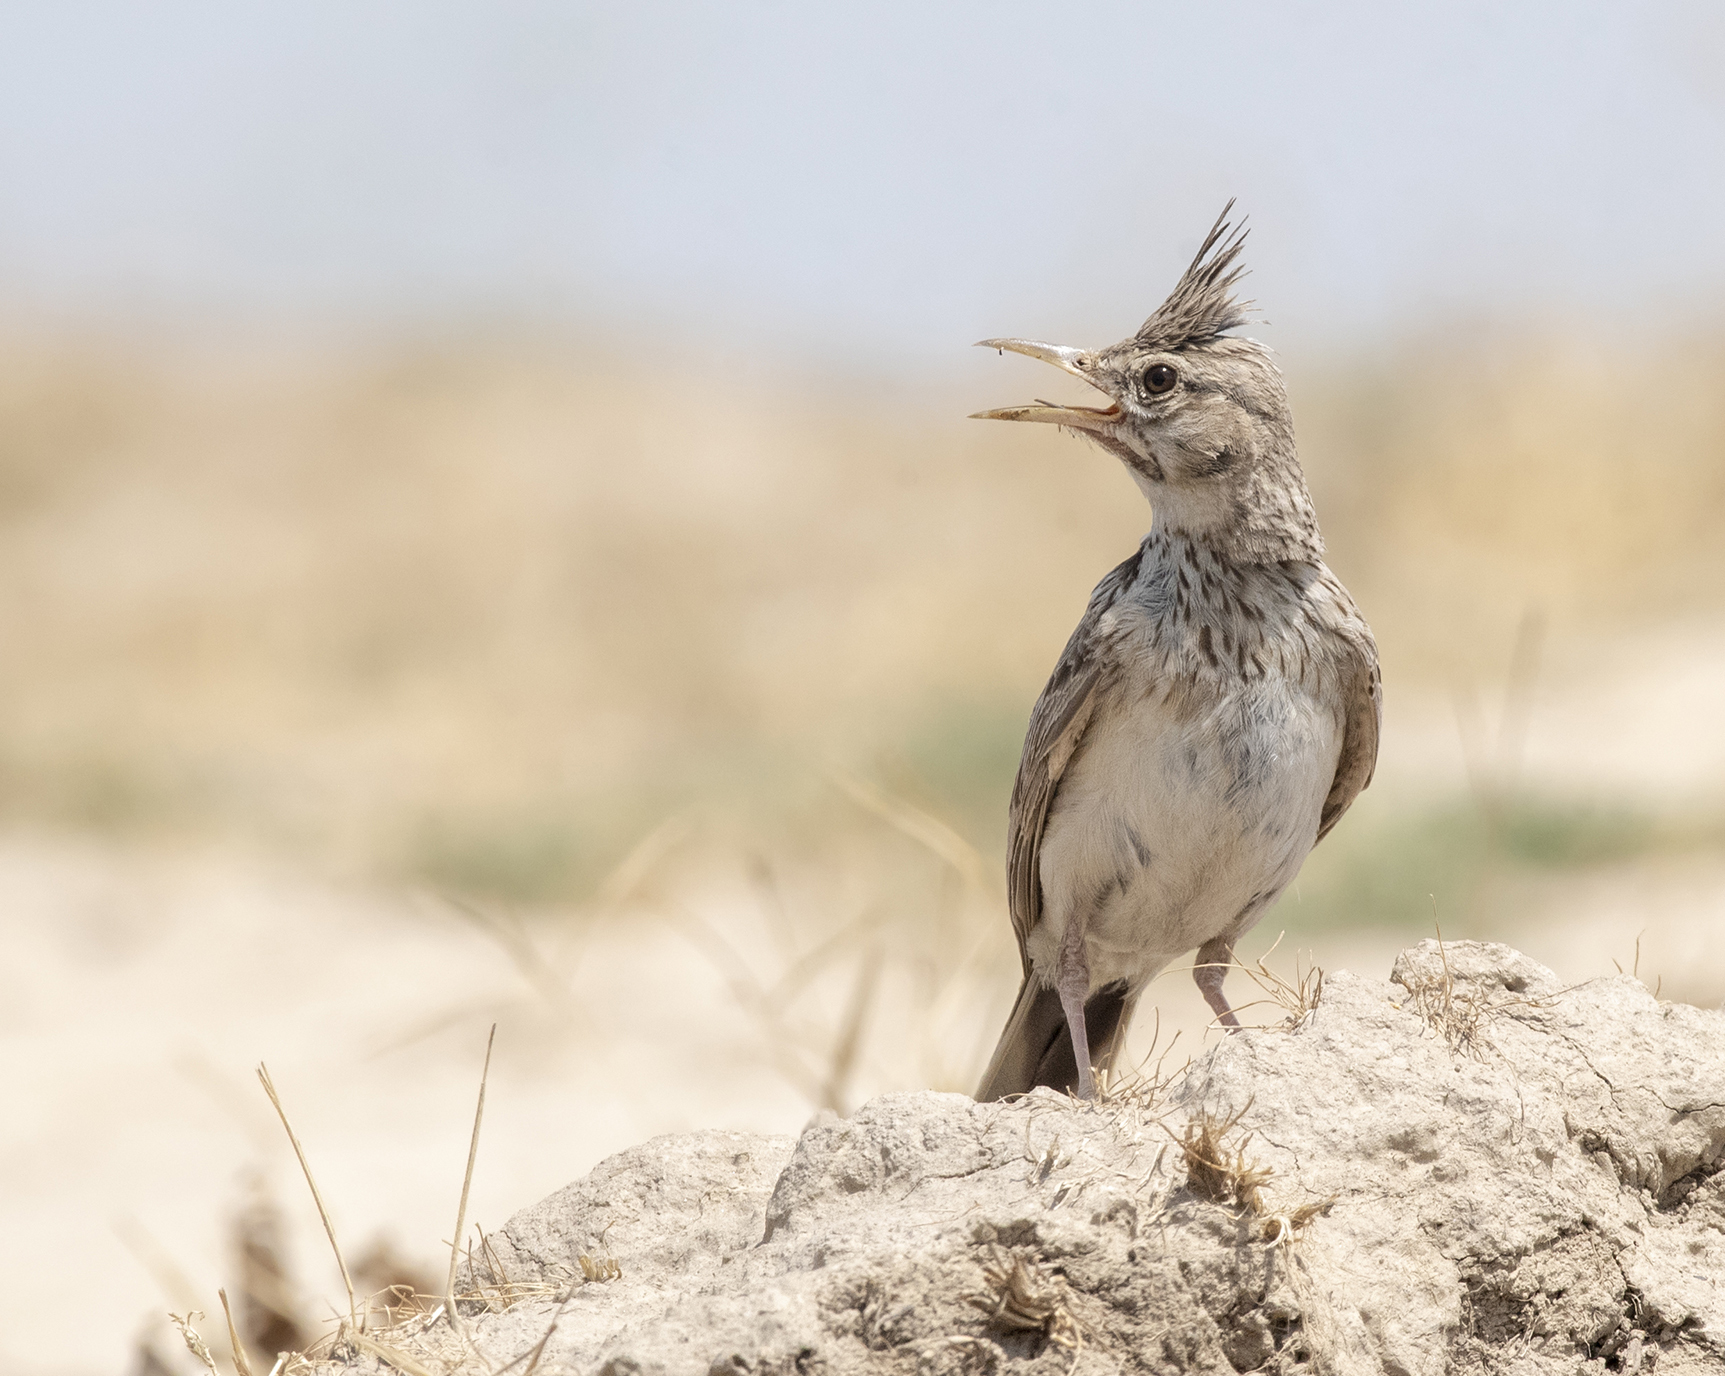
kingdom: Animalia
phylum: Chordata
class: Aves
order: Passeriformes
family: Alaudidae
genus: Galerida
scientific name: Galerida cristata
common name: Crested lark
